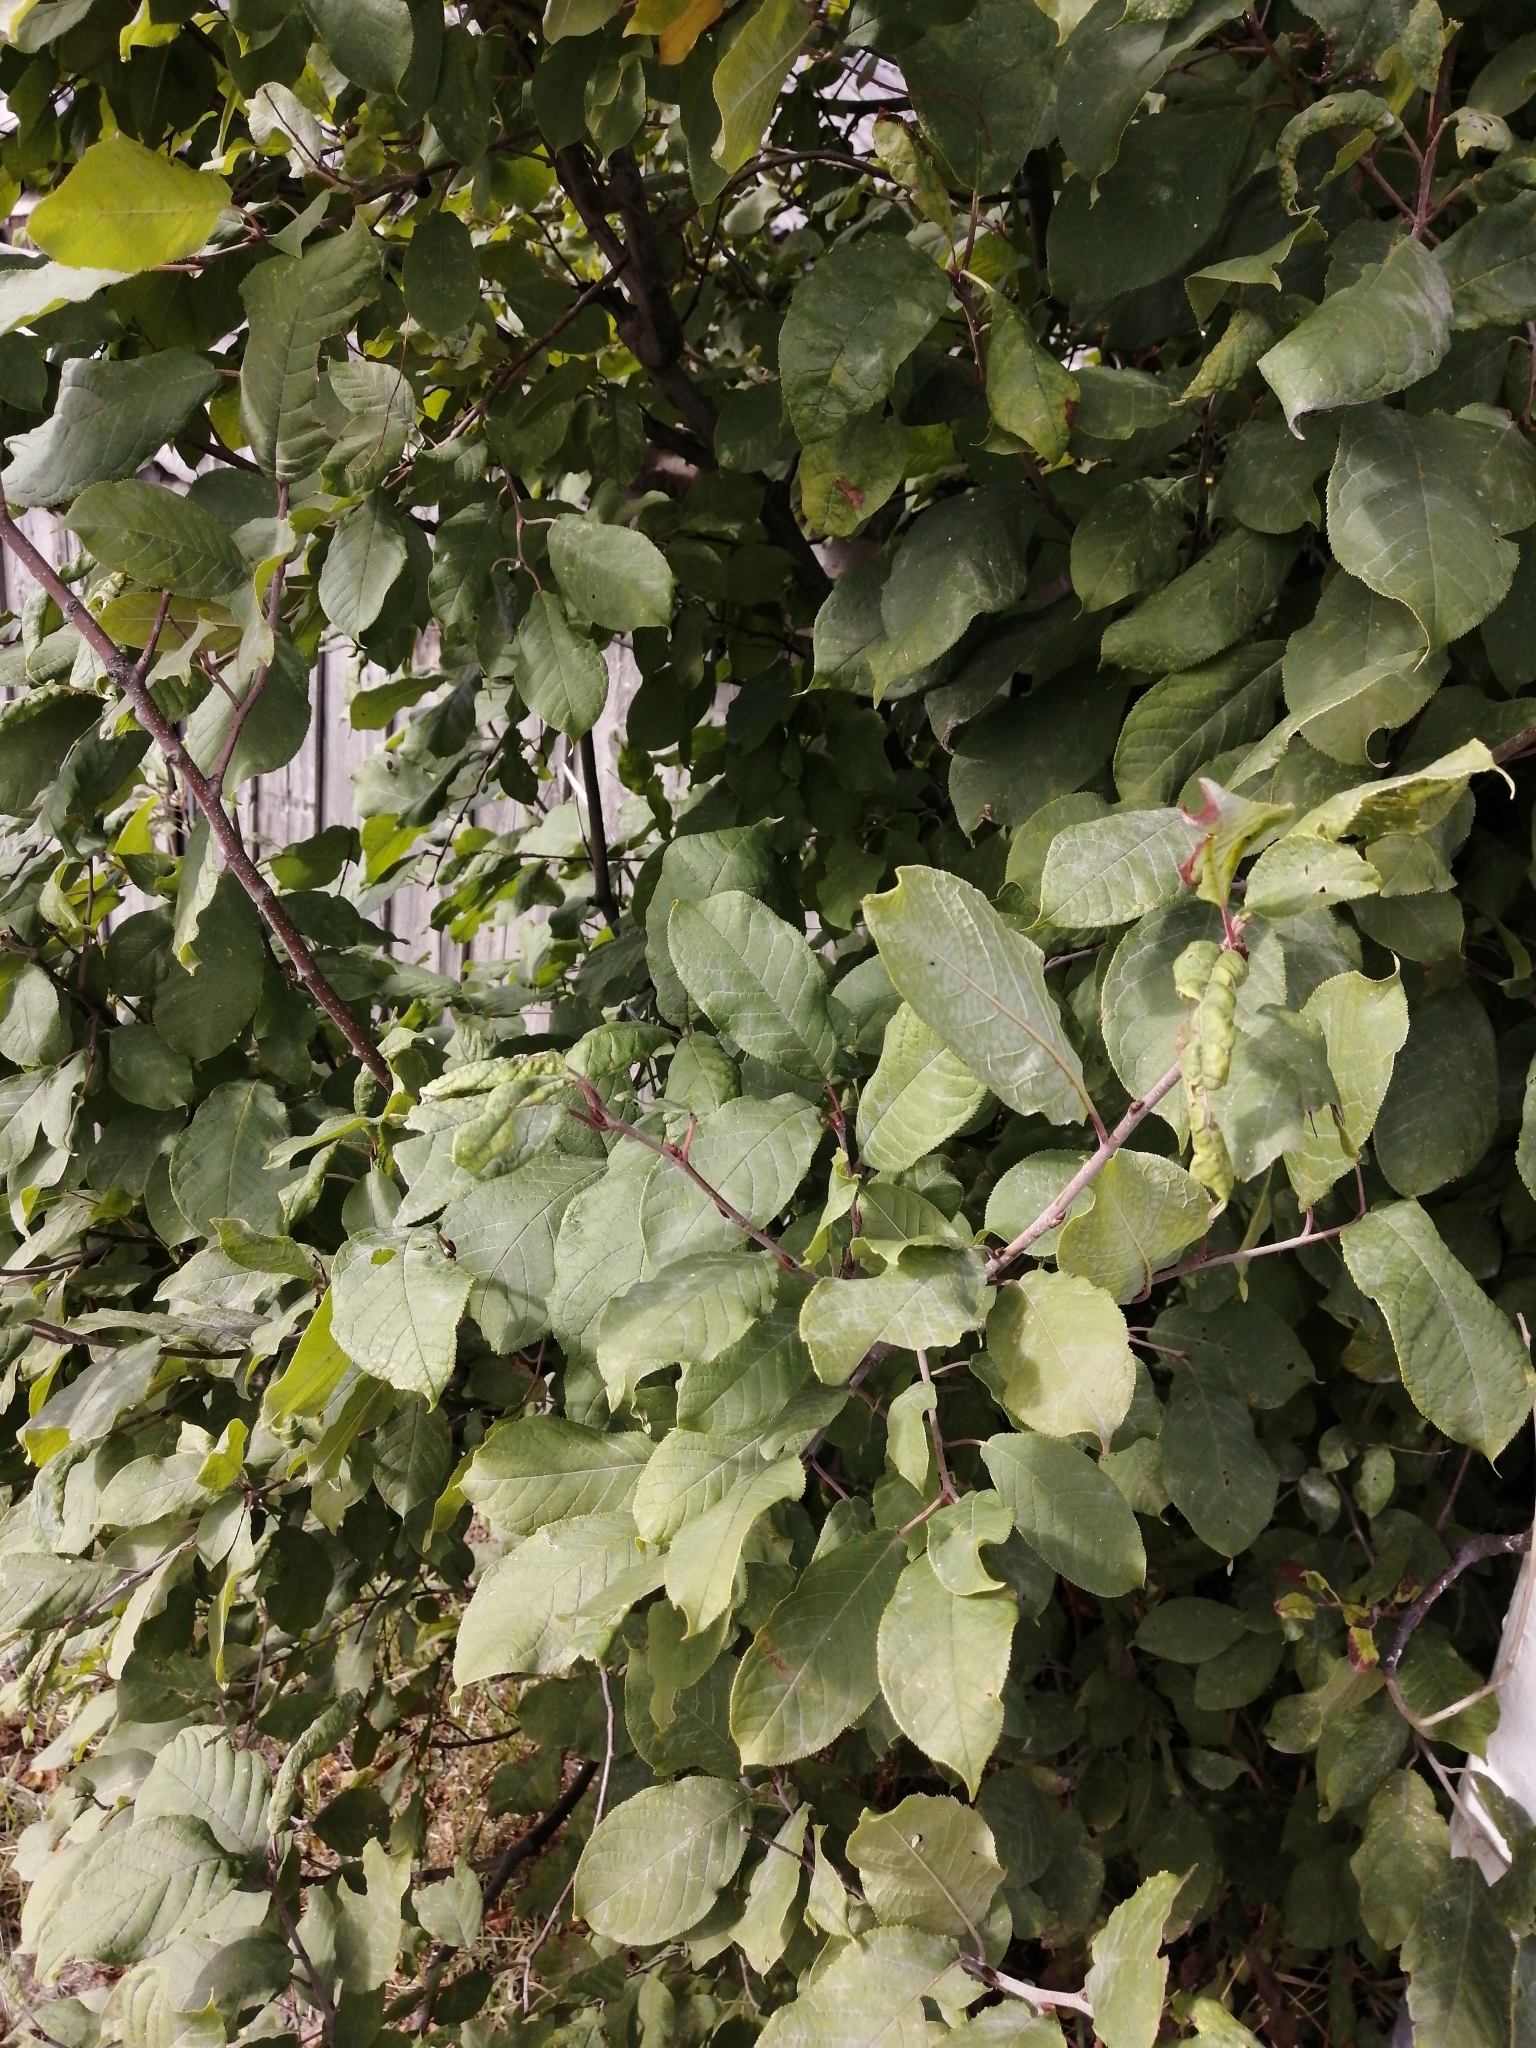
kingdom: Plantae
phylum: Tracheophyta
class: Magnoliopsida
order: Rosales
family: Rosaceae
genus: Prunus
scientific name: Prunus padus
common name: Bird cherry
